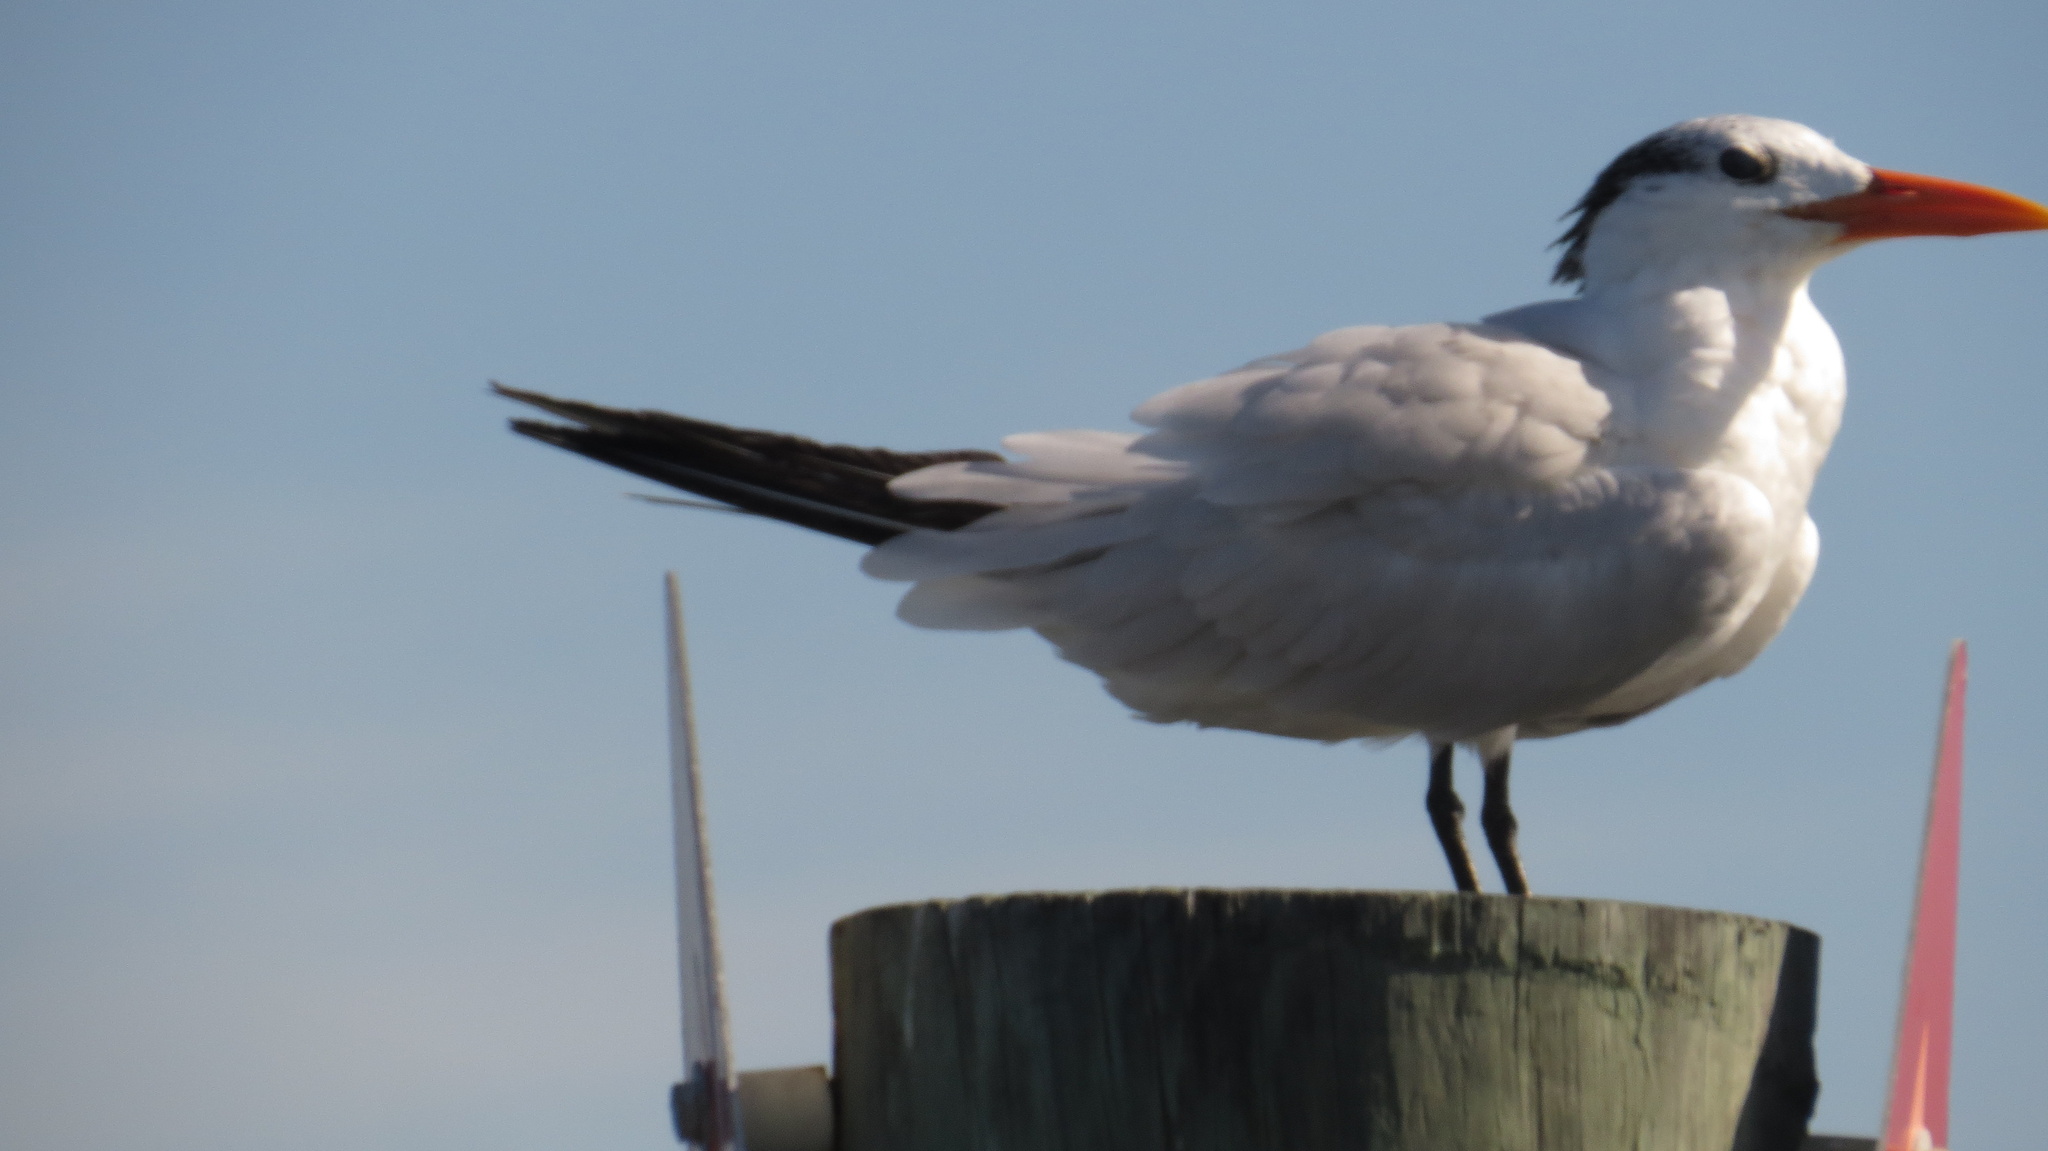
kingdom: Animalia
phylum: Chordata
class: Aves
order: Charadriiformes
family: Laridae
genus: Thalasseus
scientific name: Thalasseus maximus
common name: Royal tern
